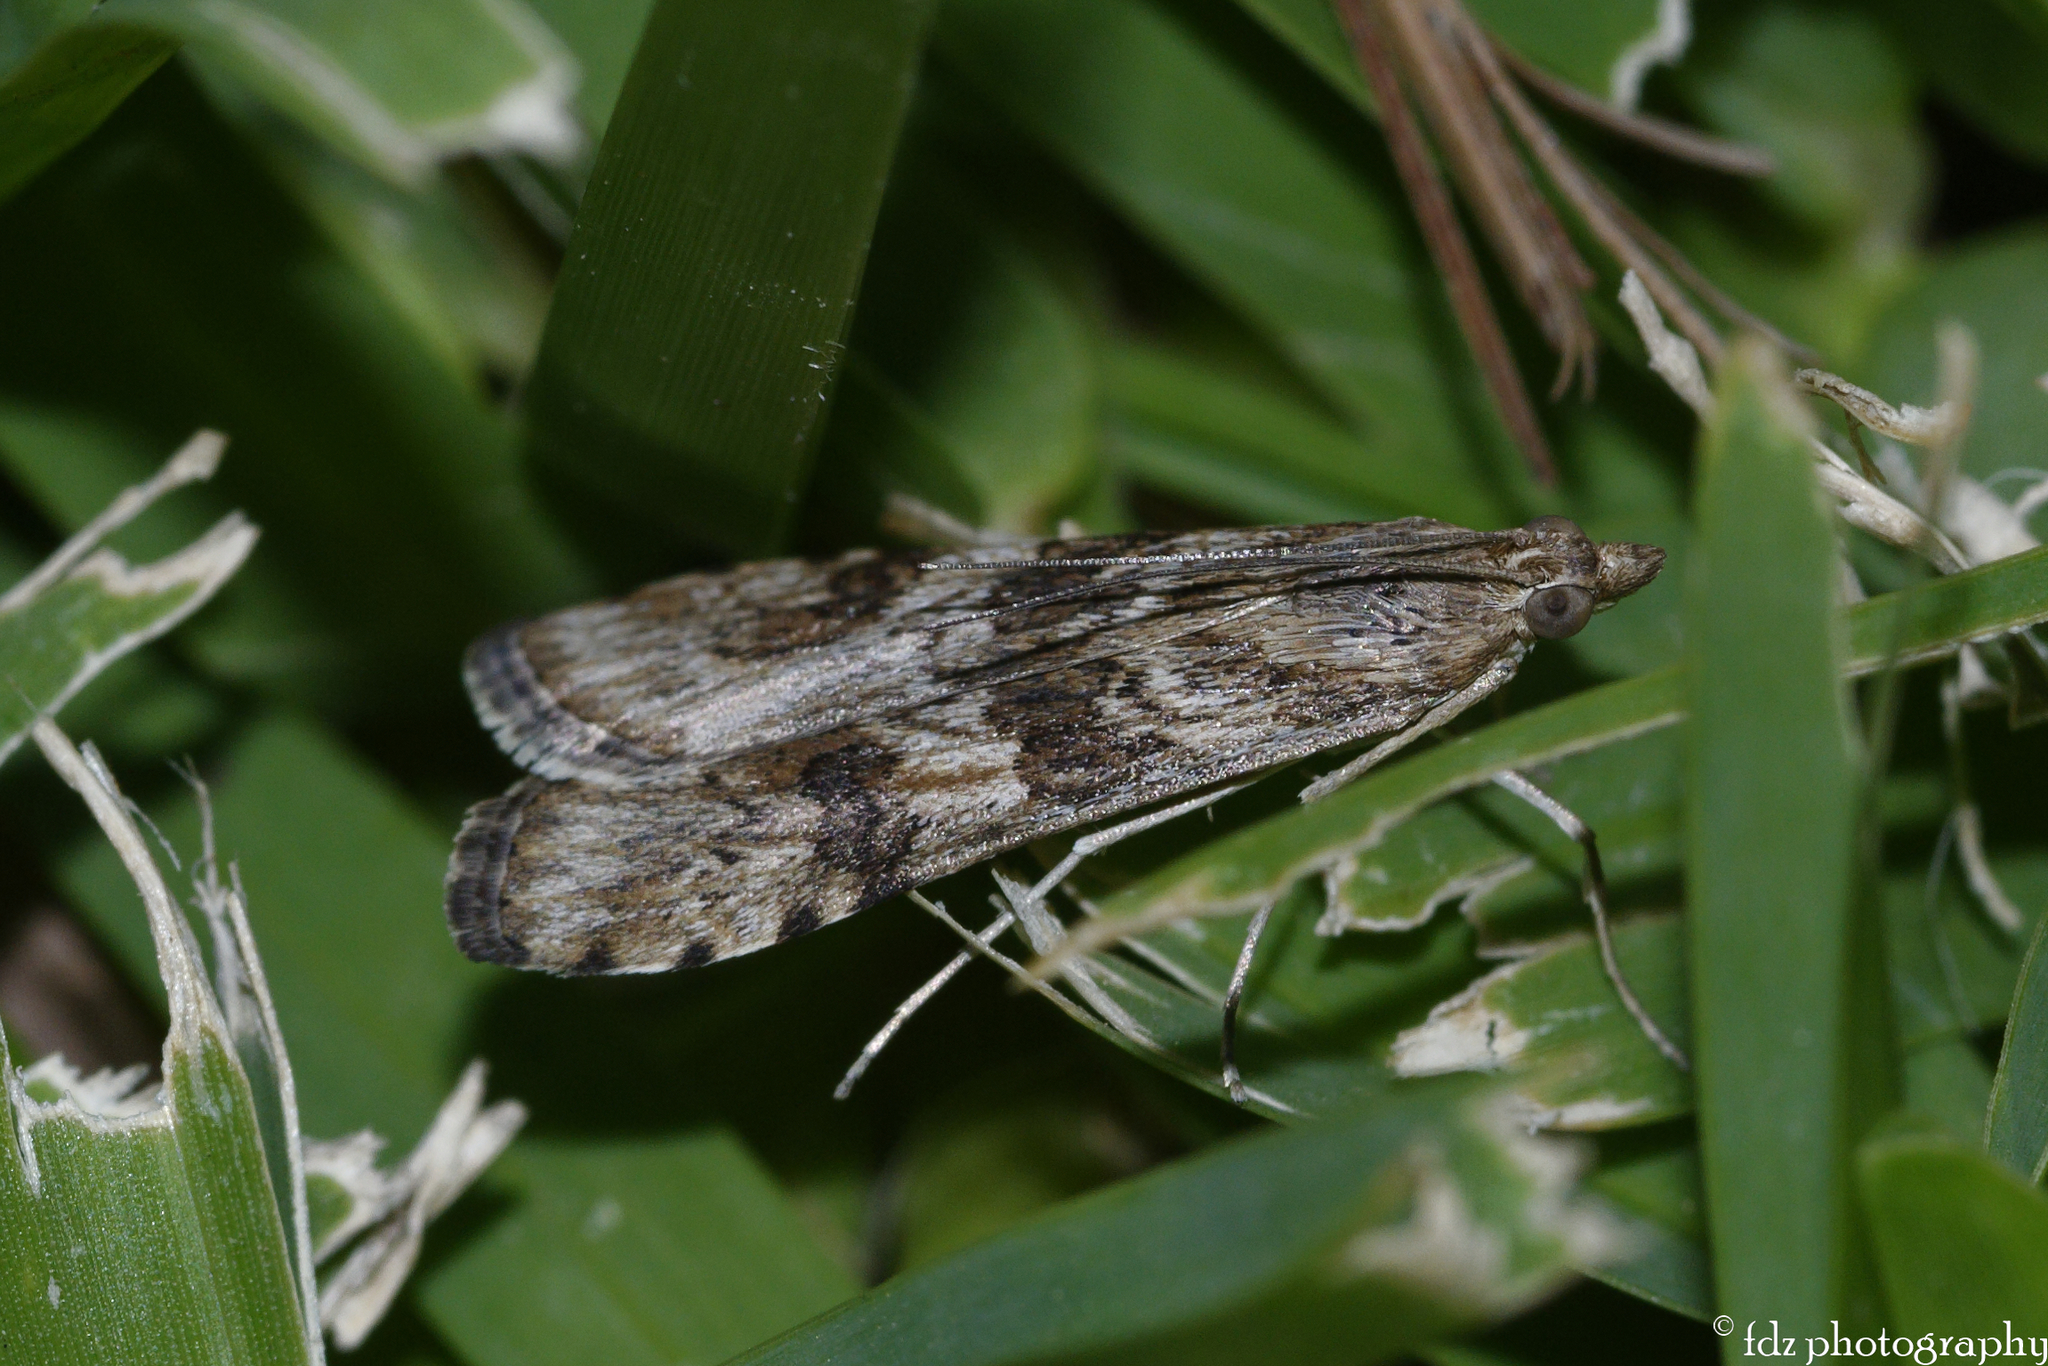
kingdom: Animalia
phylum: Arthropoda
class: Insecta
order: Lepidoptera
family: Crambidae
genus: Nomophila
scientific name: Nomophila noctuella
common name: Rush veneer
